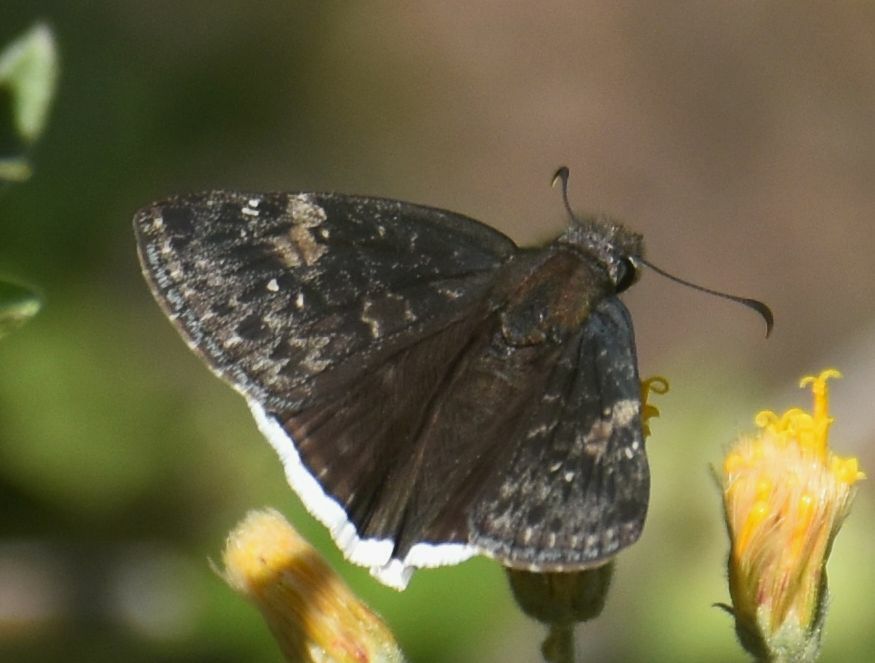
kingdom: Animalia
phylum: Arthropoda
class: Insecta
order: Lepidoptera
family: Hesperiidae
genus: Erynnis
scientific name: Erynnis funeralis
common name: Funereal duskywing
